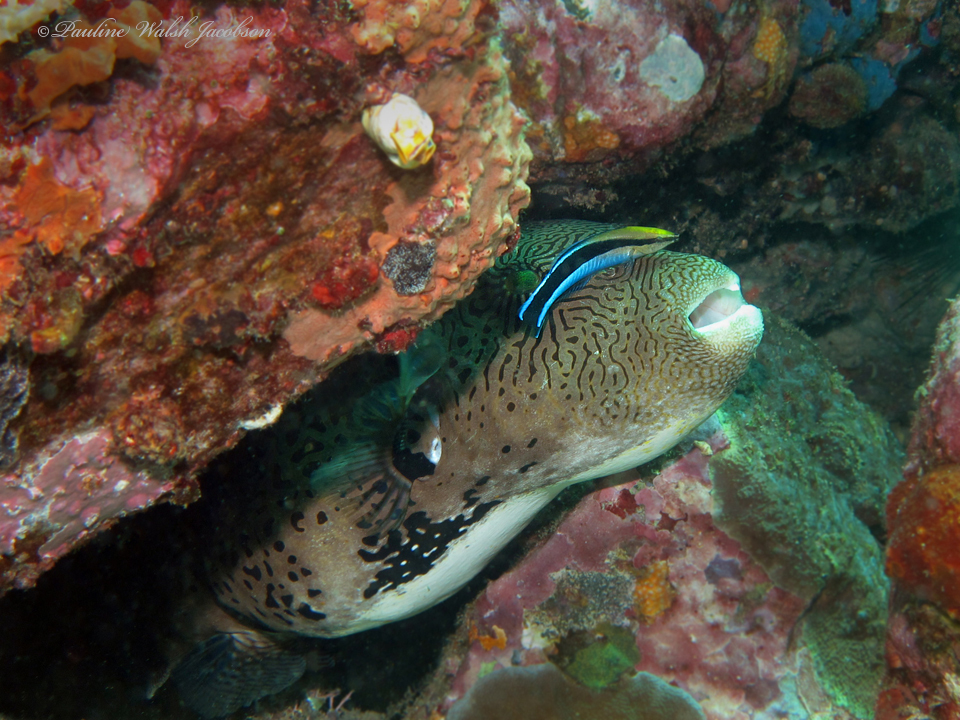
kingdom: Animalia
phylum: Chordata
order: Perciformes
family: Labridae
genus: Labroides
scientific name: Labroides dimidiatus
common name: Blue diesel wrasse
